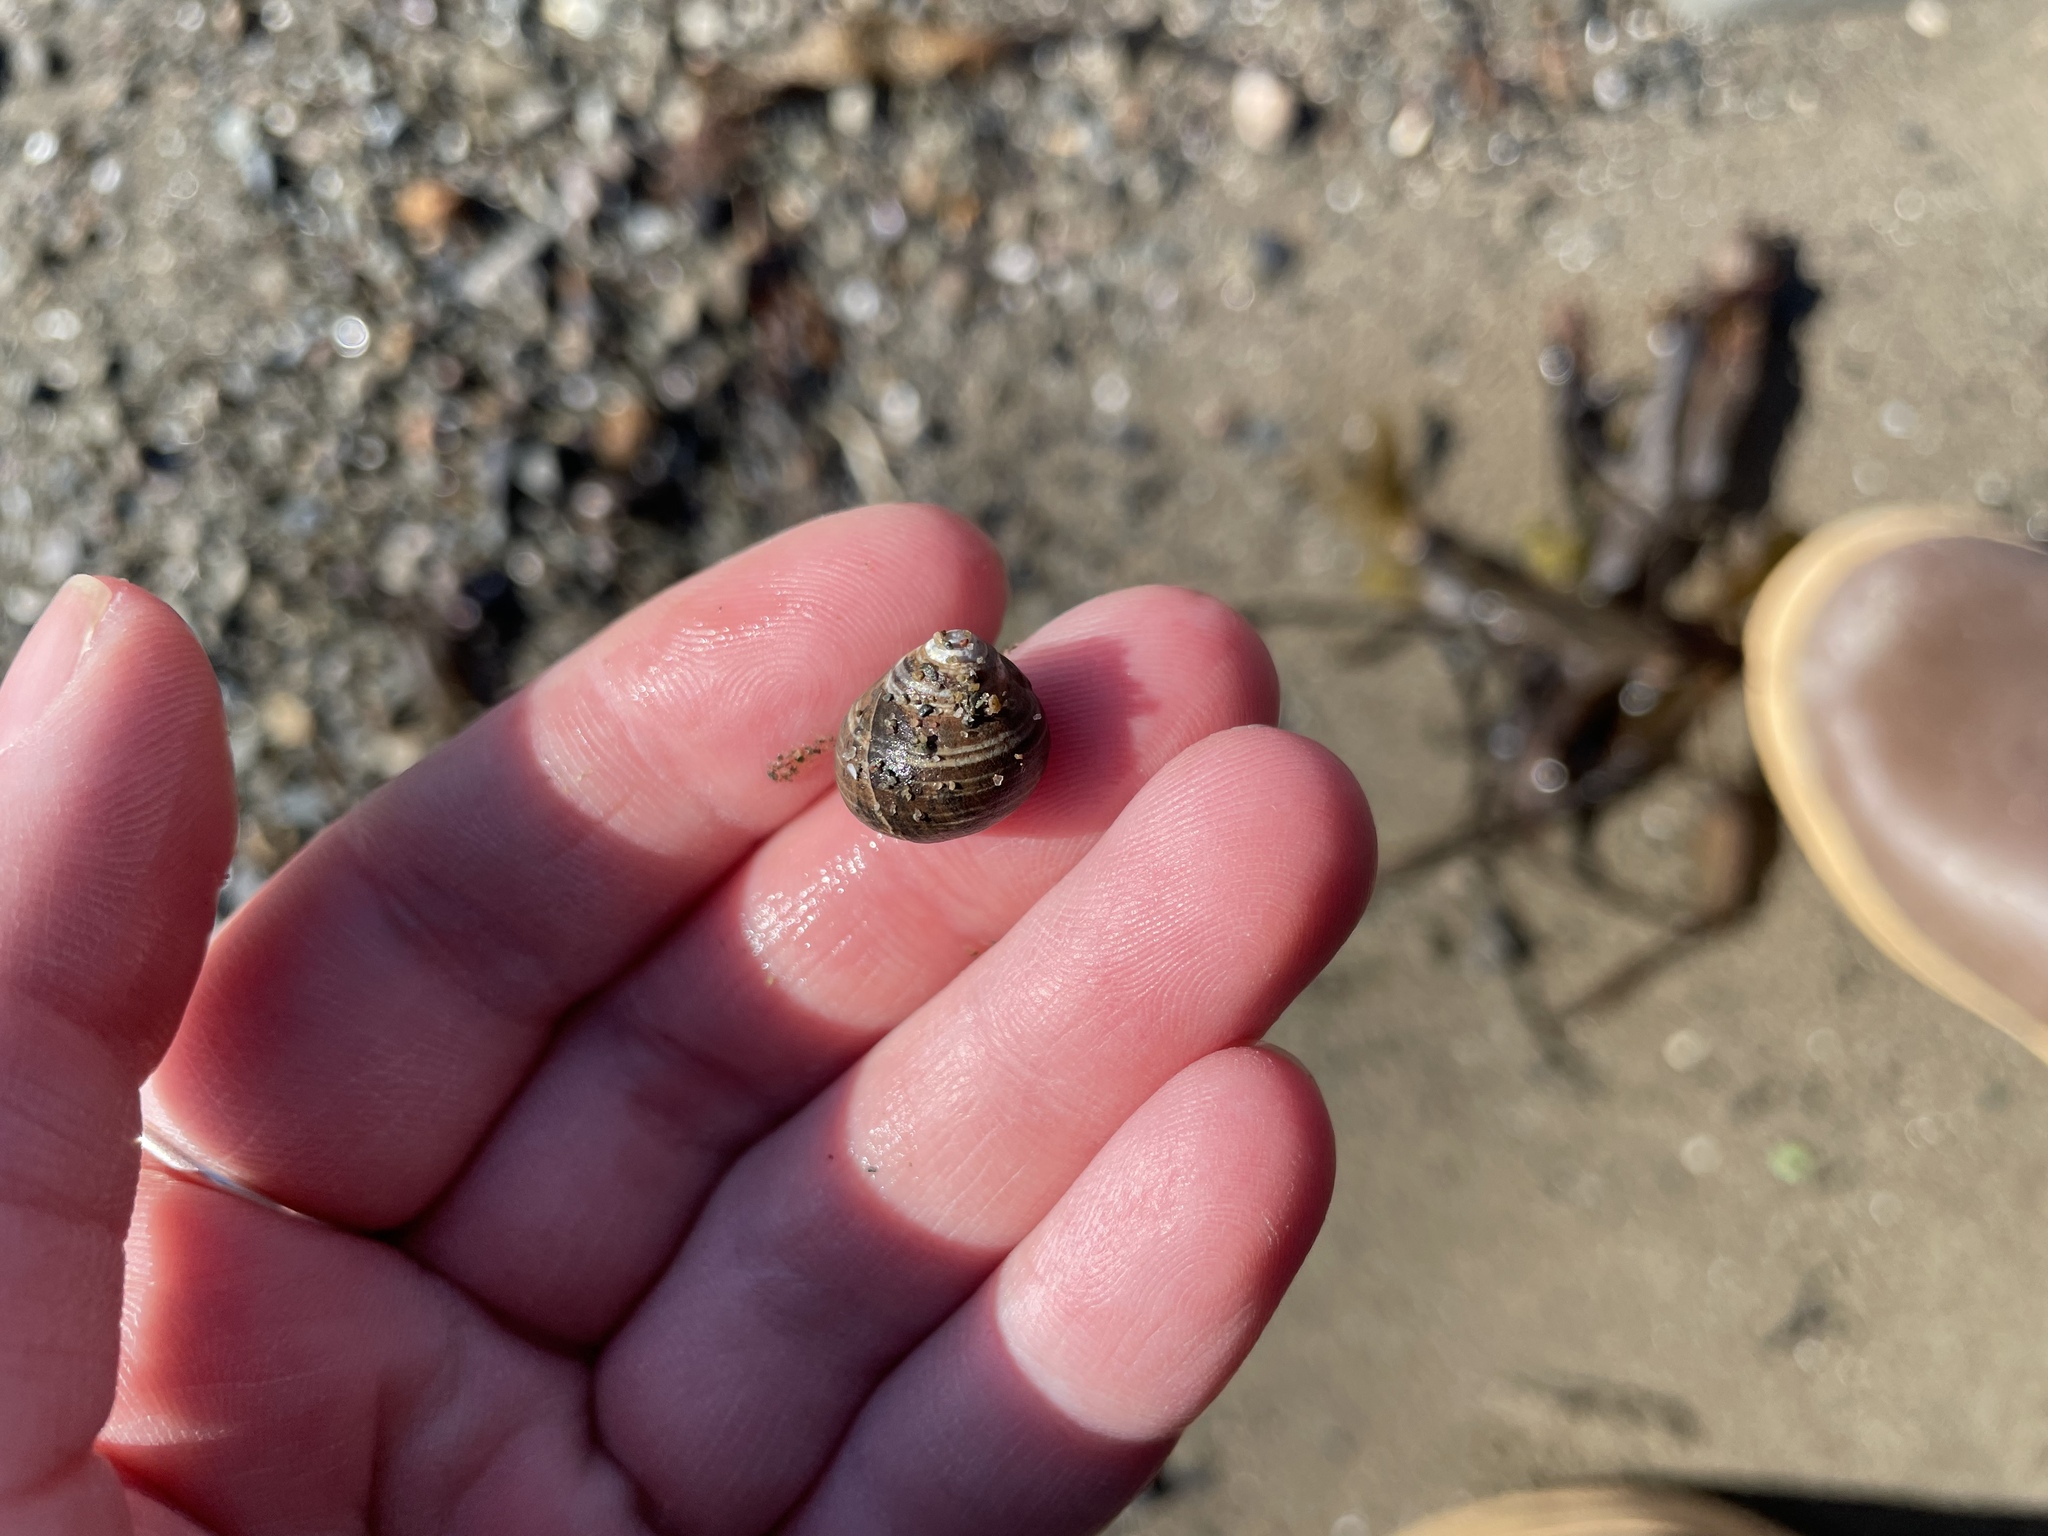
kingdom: Animalia
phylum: Mollusca
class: Gastropoda
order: Littorinimorpha
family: Littorinidae
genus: Littorina
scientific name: Littorina littorea
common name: Common periwinkle
